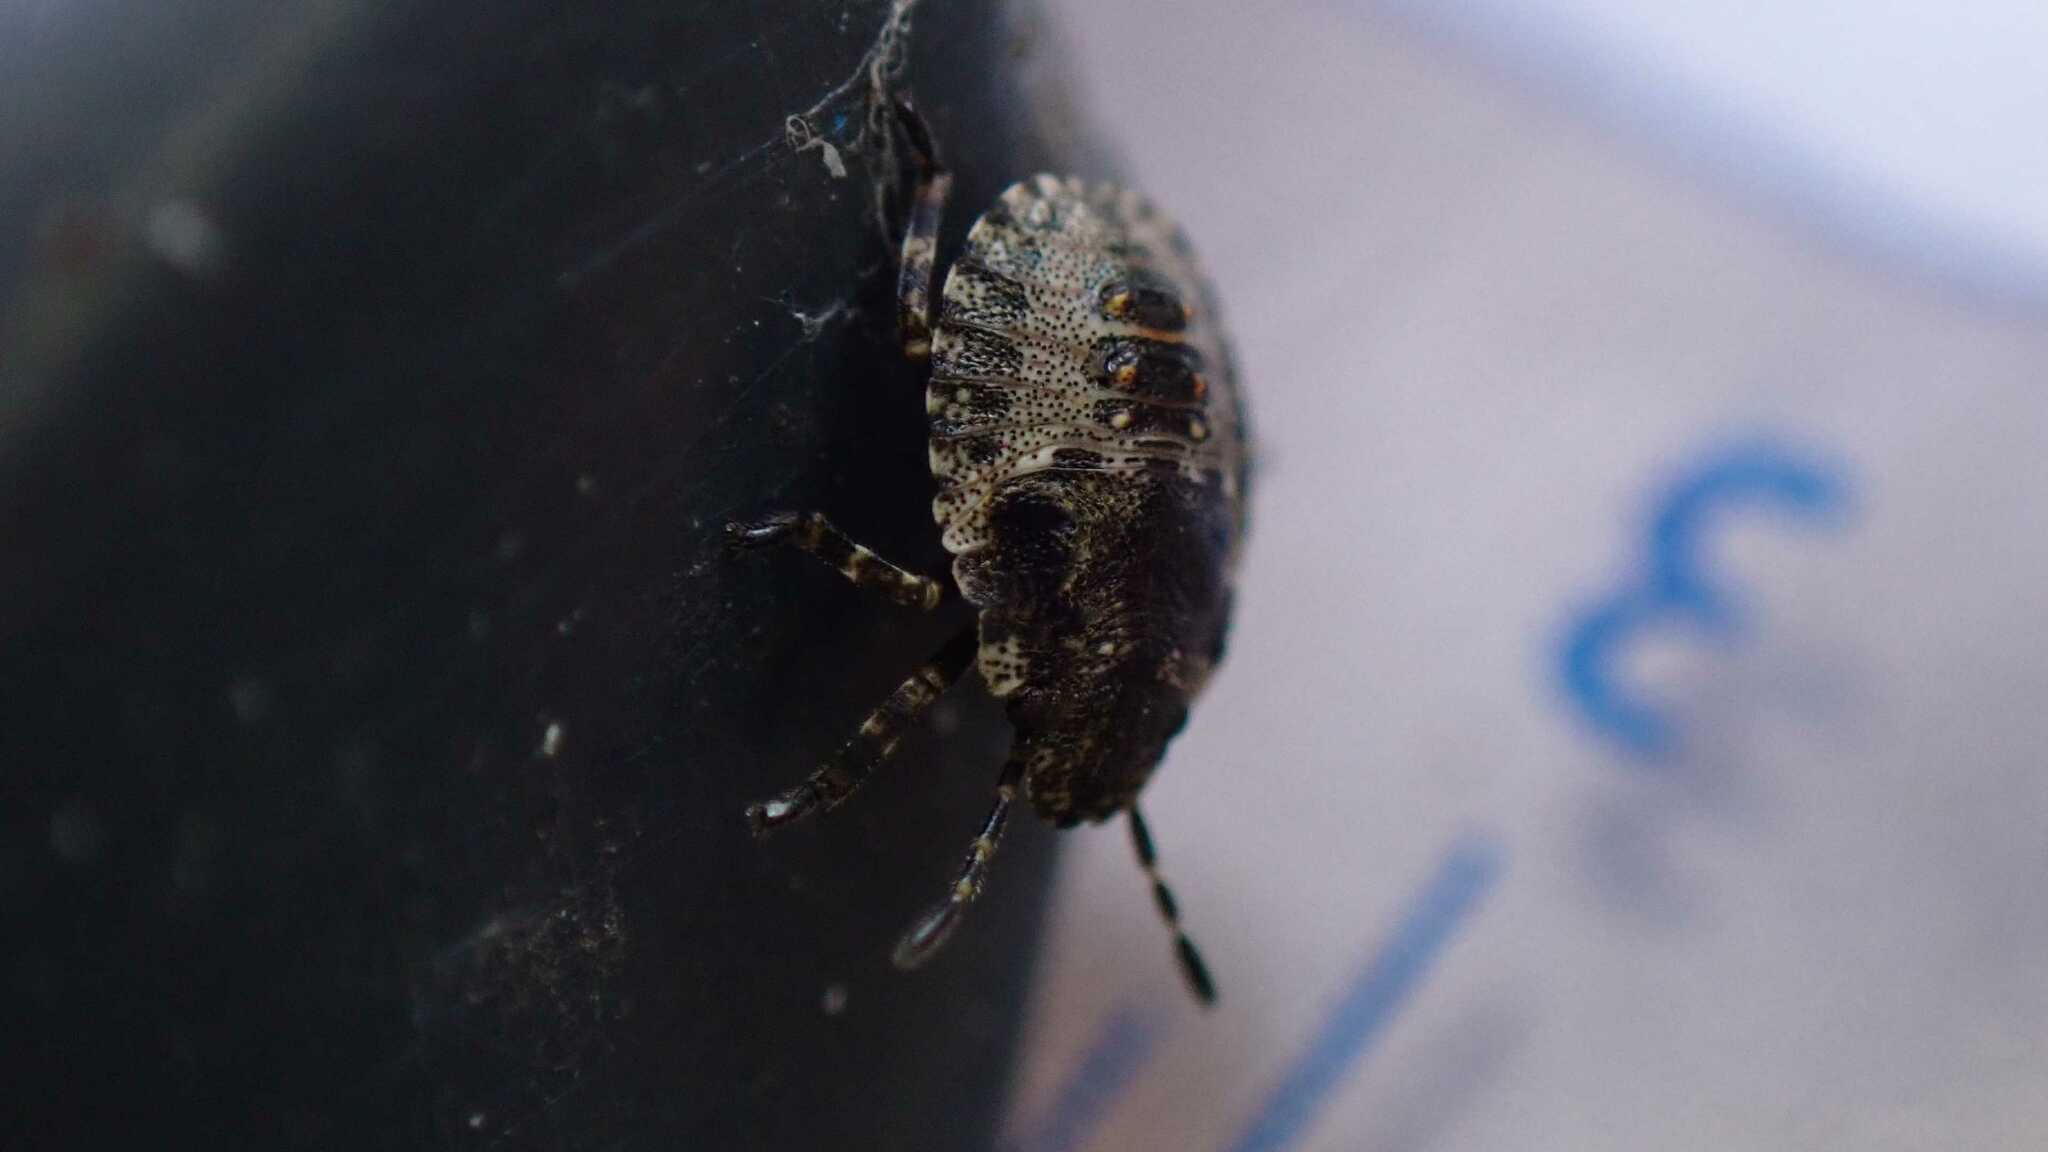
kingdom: Animalia
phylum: Arthropoda
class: Insecta
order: Hemiptera
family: Pentatomidae
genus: Pentatoma
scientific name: Pentatoma rufipes
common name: Forest bug
